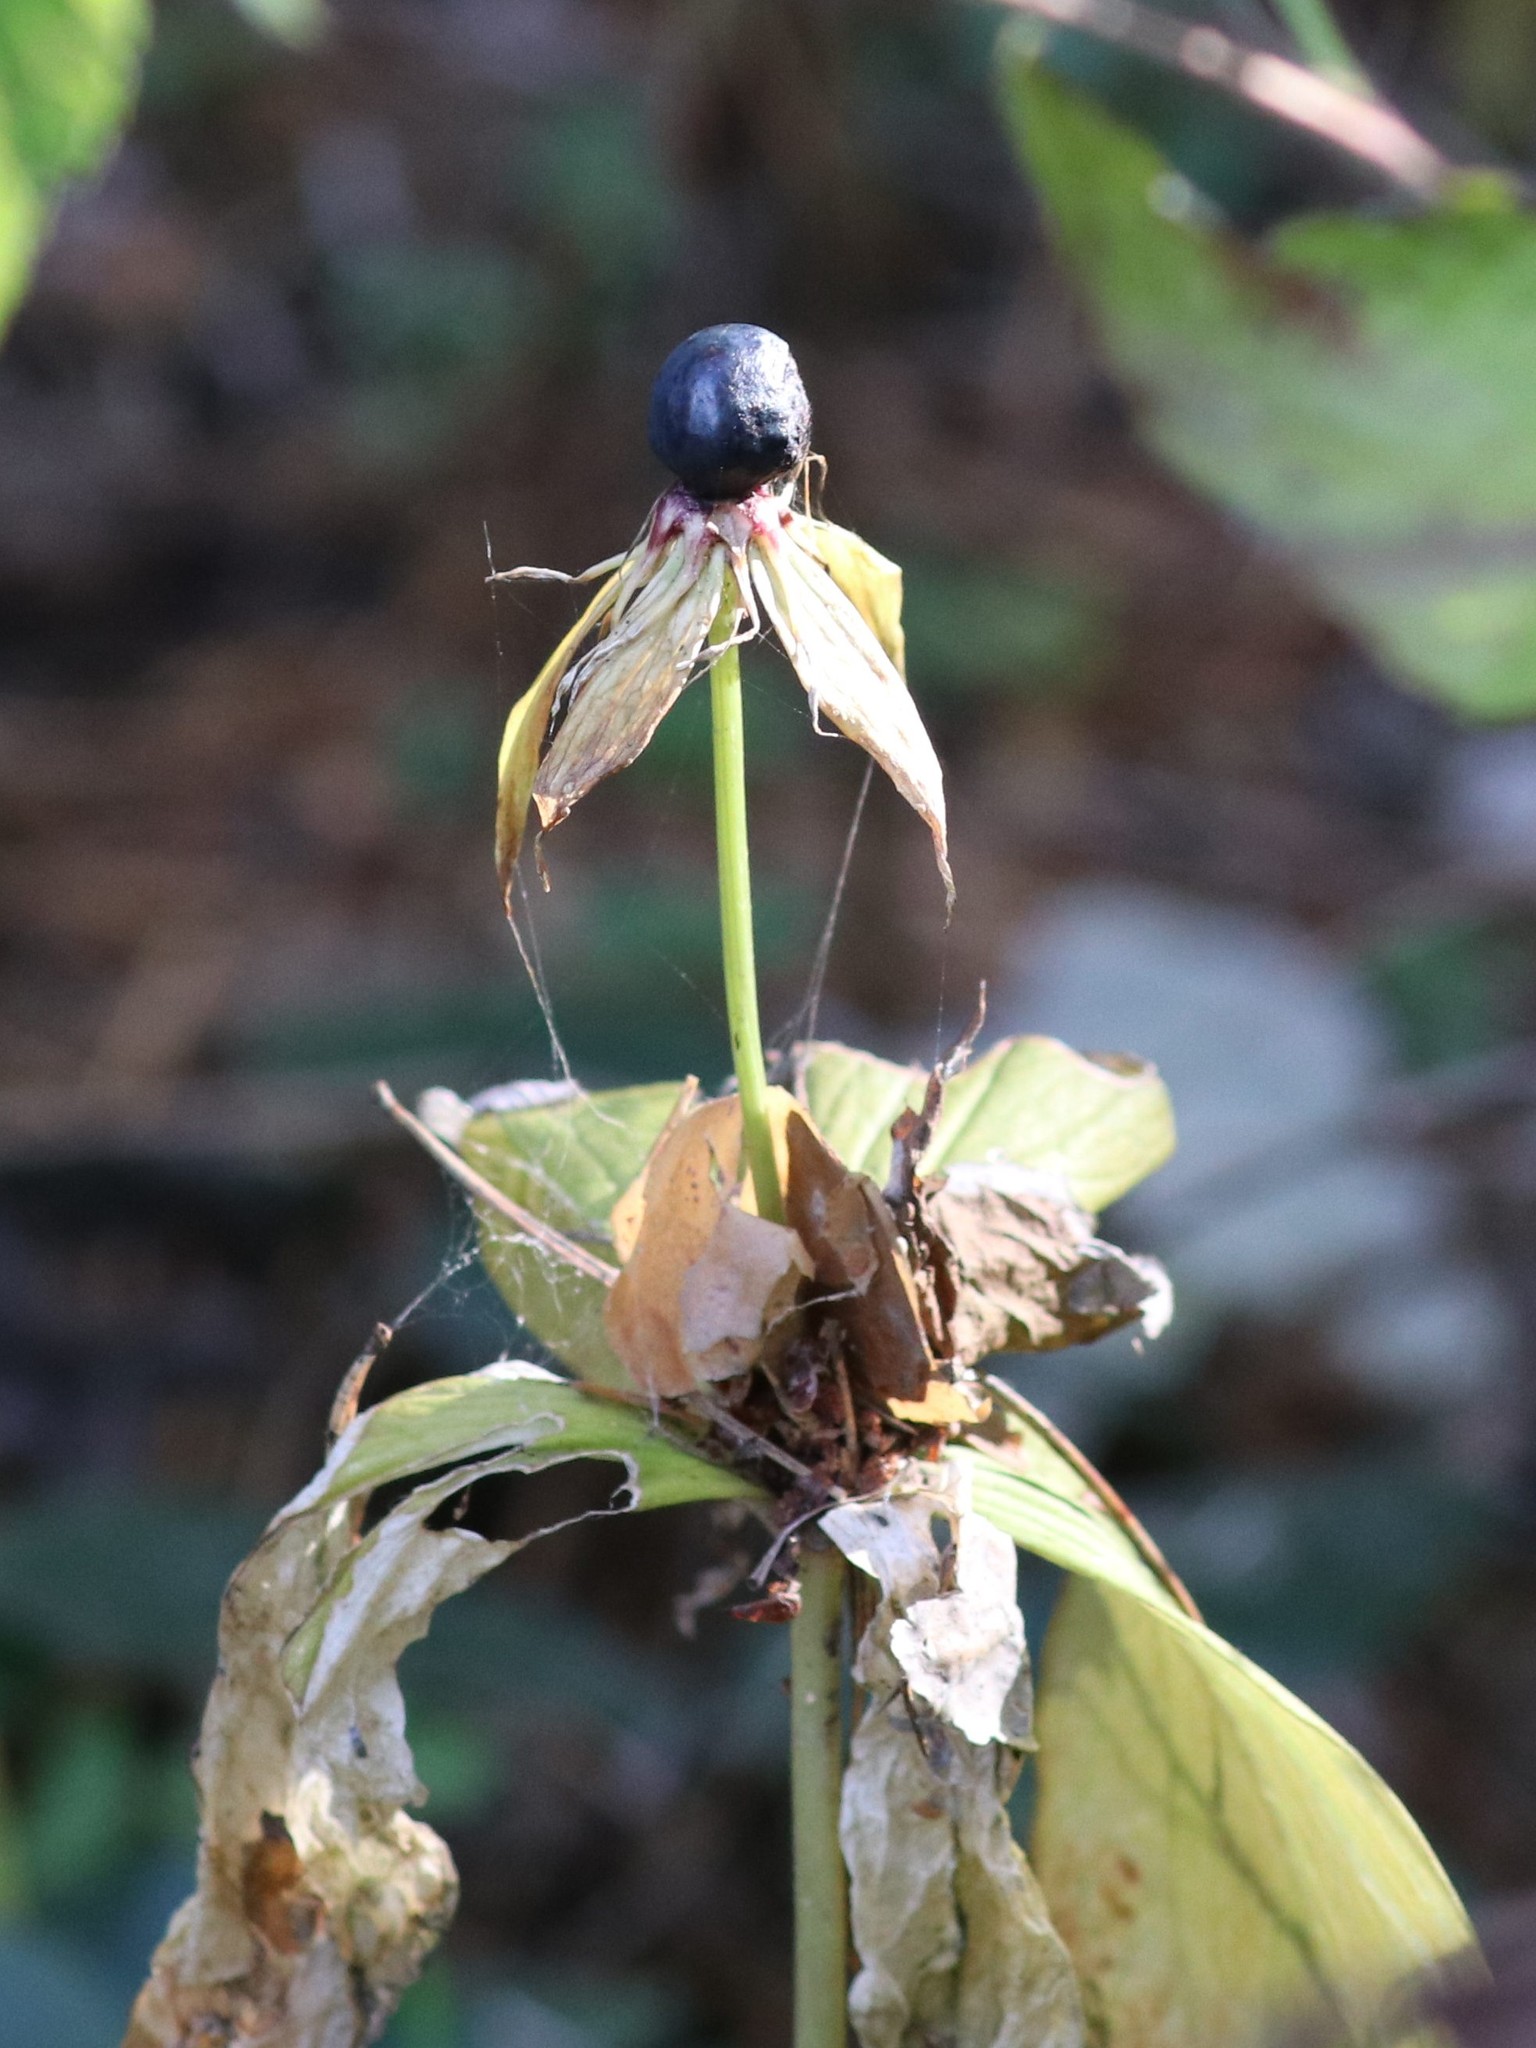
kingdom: Plantae
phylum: Tracheophyta
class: Liliopsida
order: Liliales
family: Melanthiaceae
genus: Paris
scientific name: Paris quadrifolia
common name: Herb-paris
